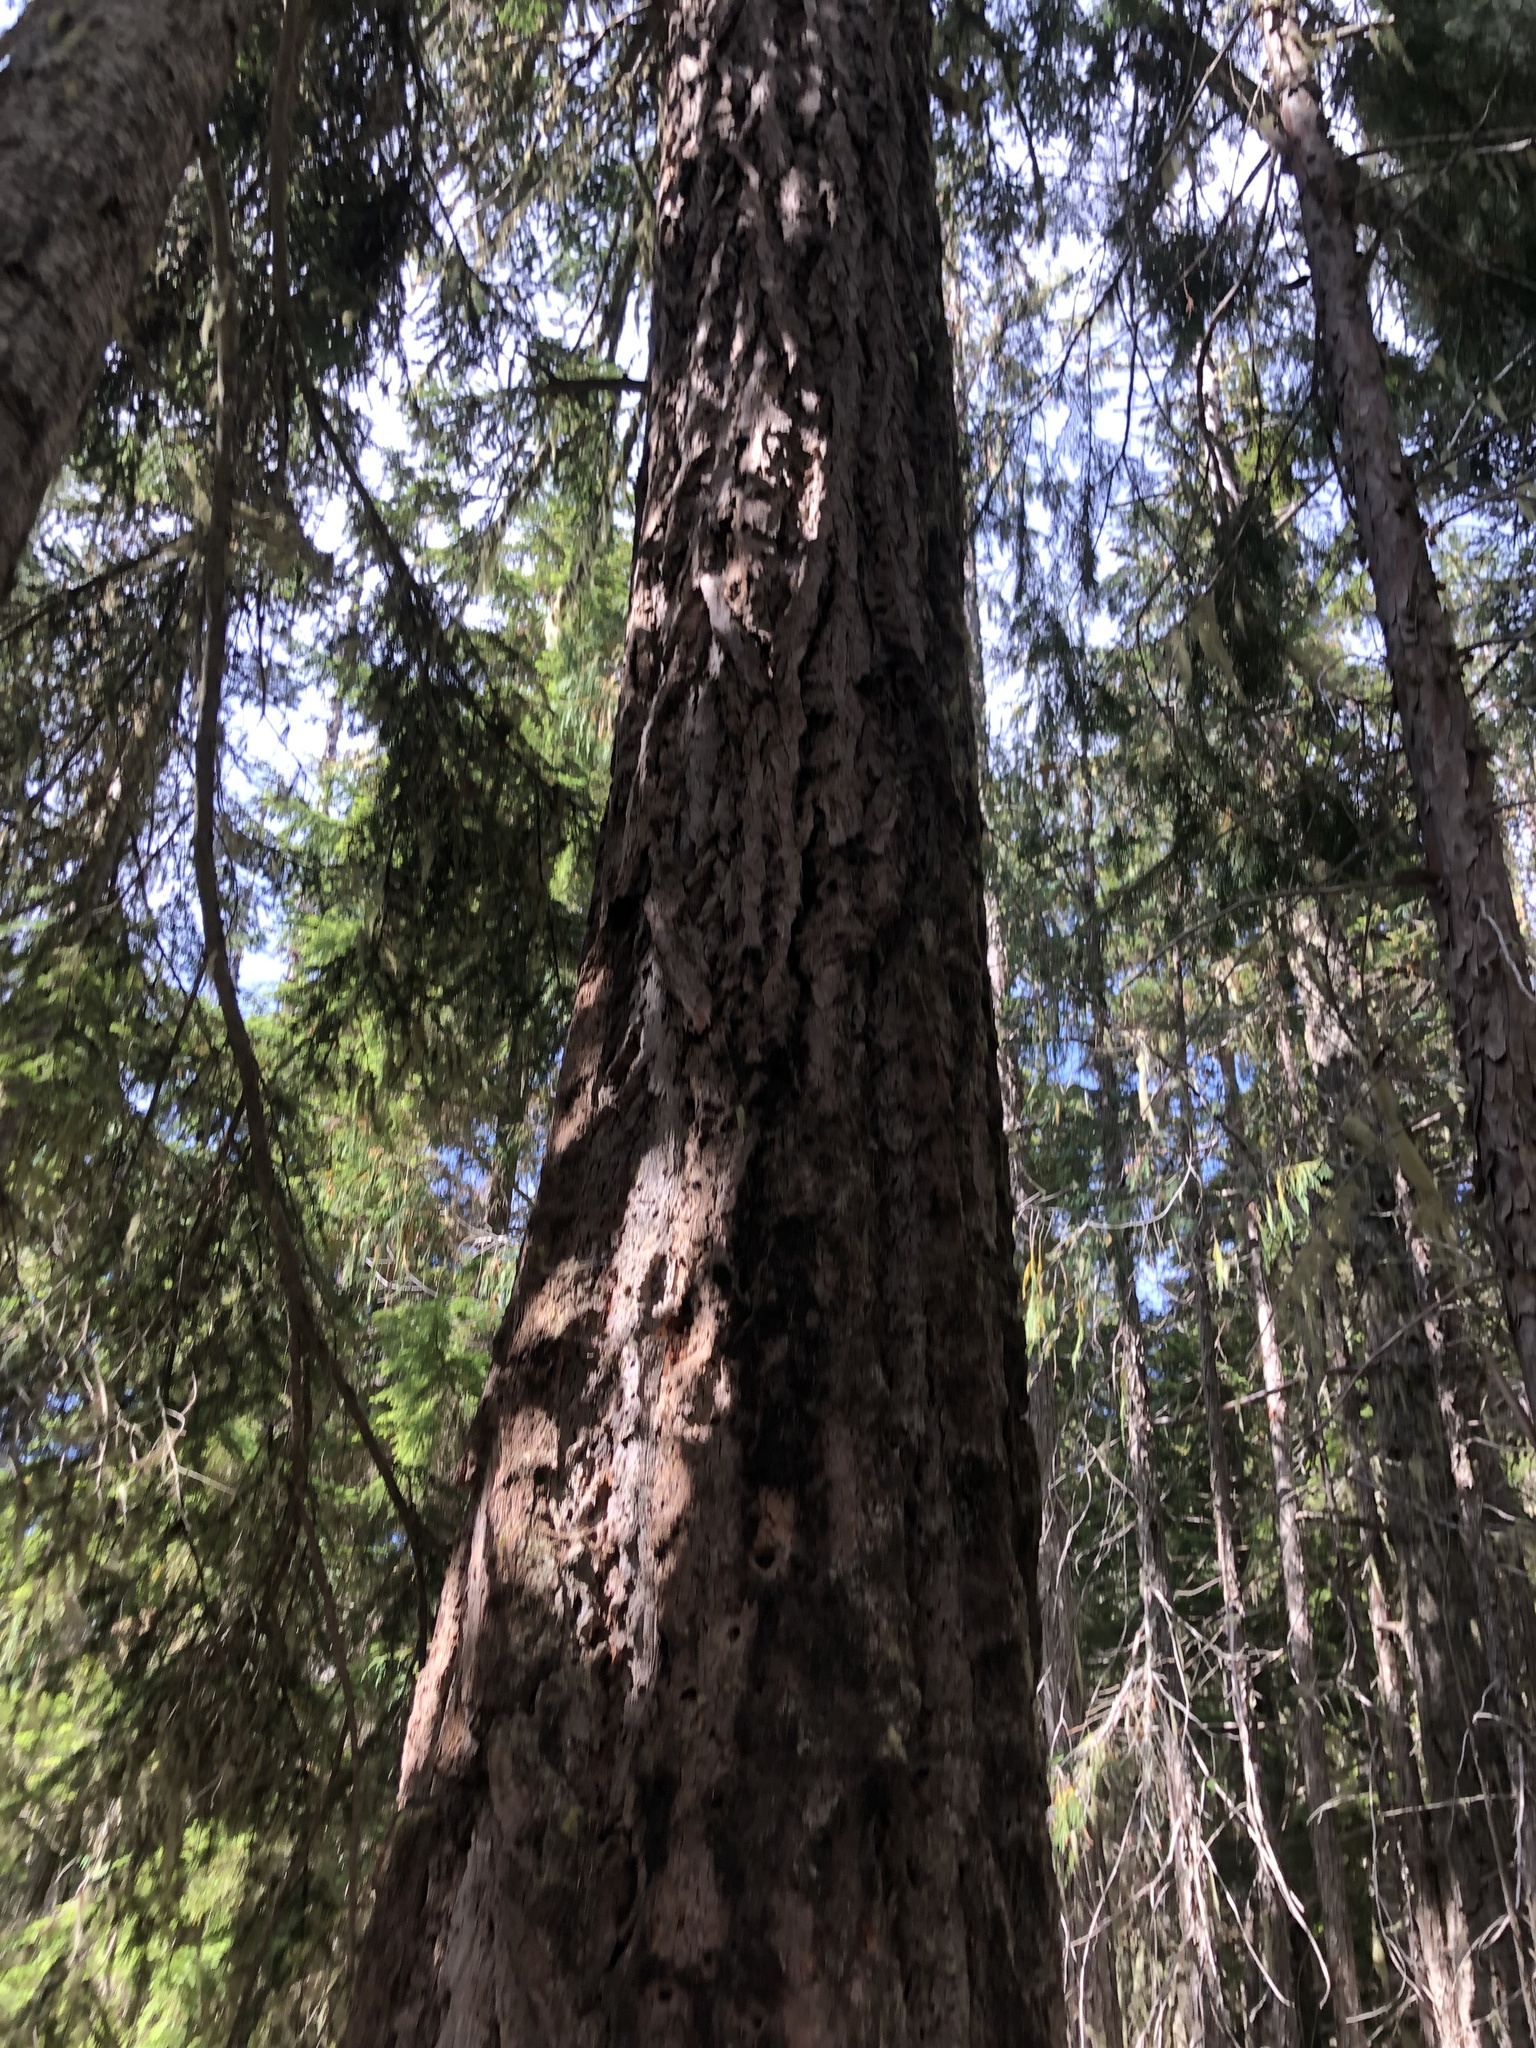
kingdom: Plantae
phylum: Tracheophyta
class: Pinopsida
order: Pinales
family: Pinaceae
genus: Pseudotsuga
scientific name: Pseudotsuga menziesii
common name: Douglas fir
